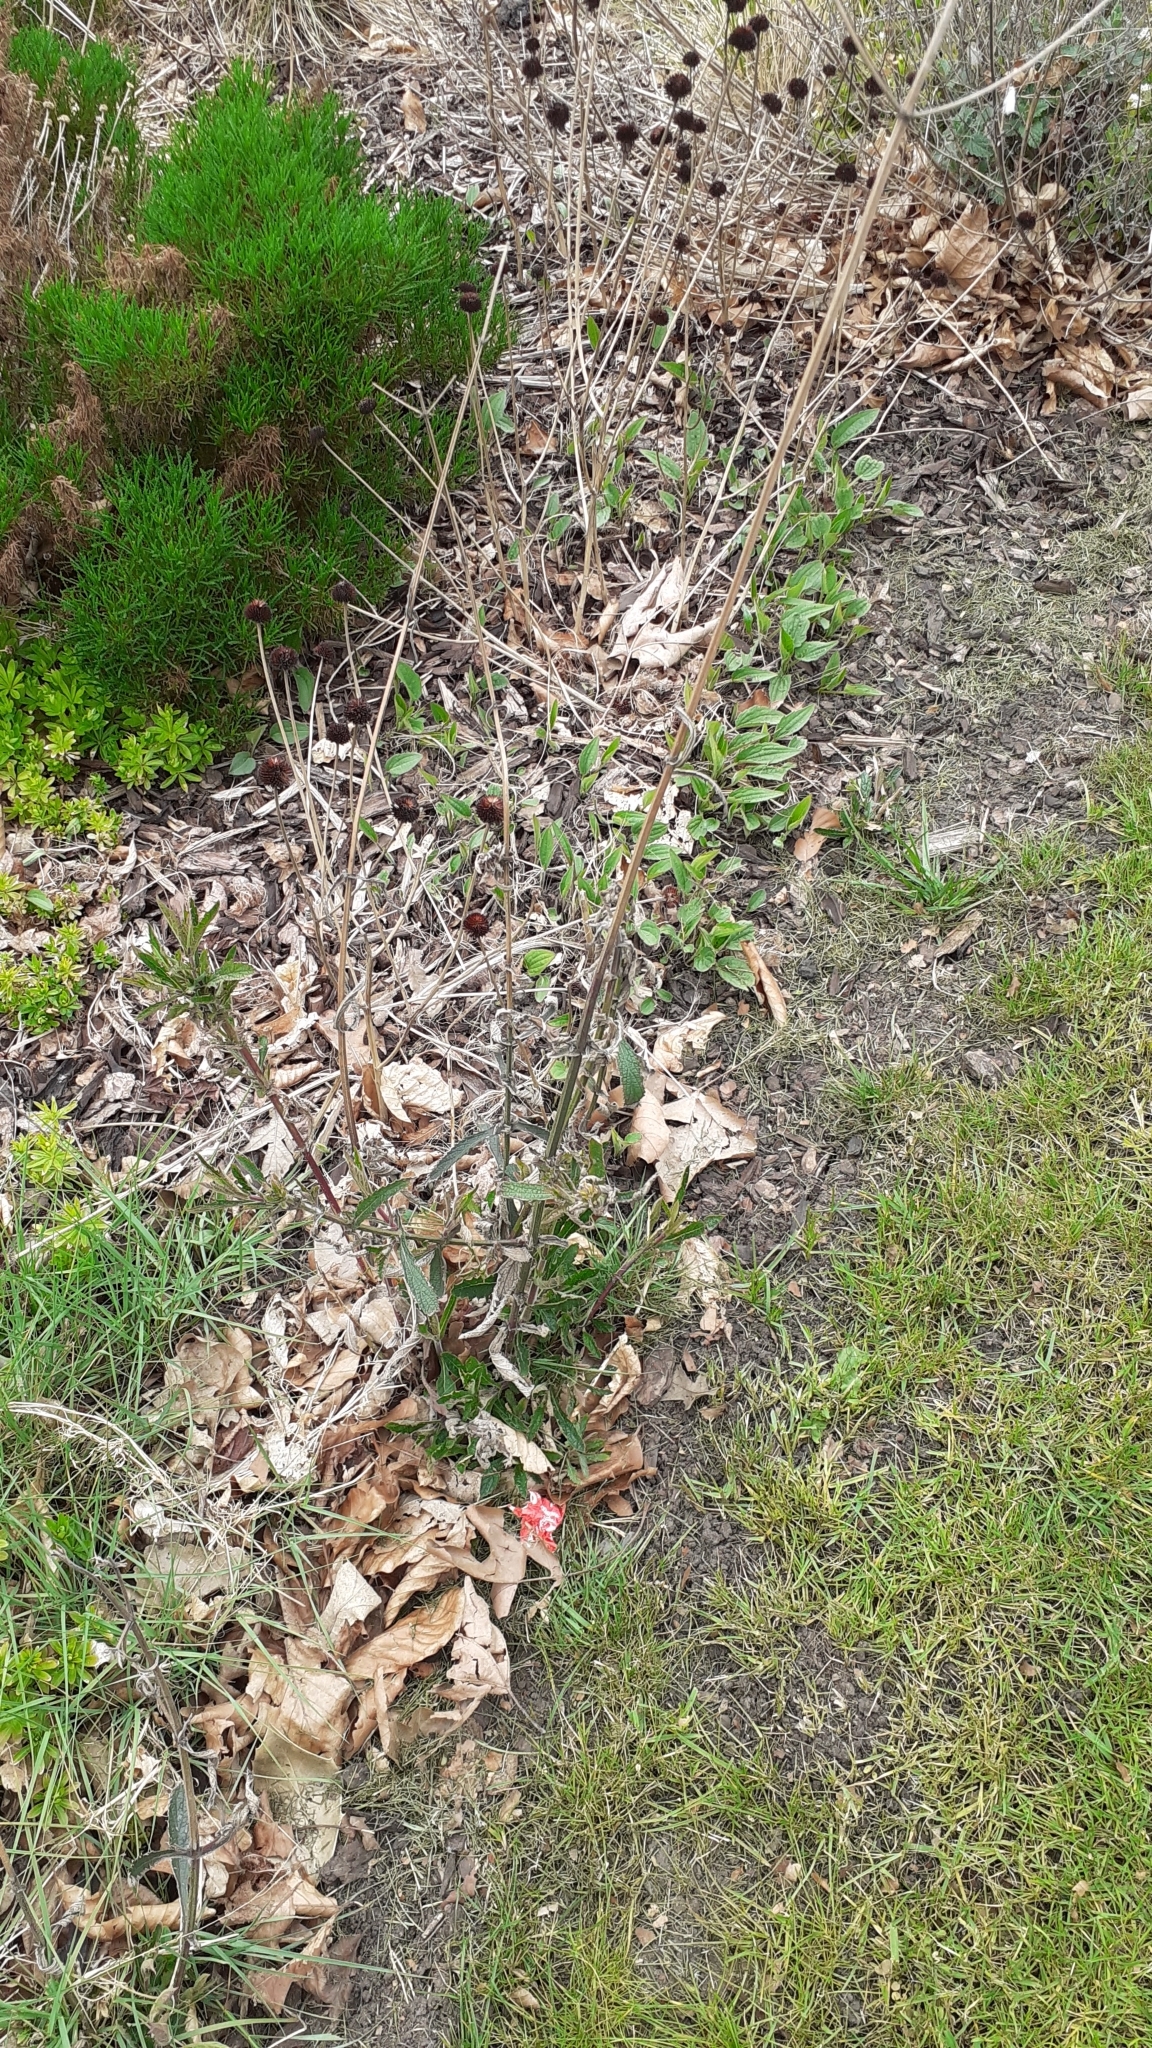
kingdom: Plantae
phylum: Tracheophyta
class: Magnoliopsida
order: Lamiales
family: Verbenaceae
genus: Verbena
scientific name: Verbena bonariensis
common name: Purpletop vervain
